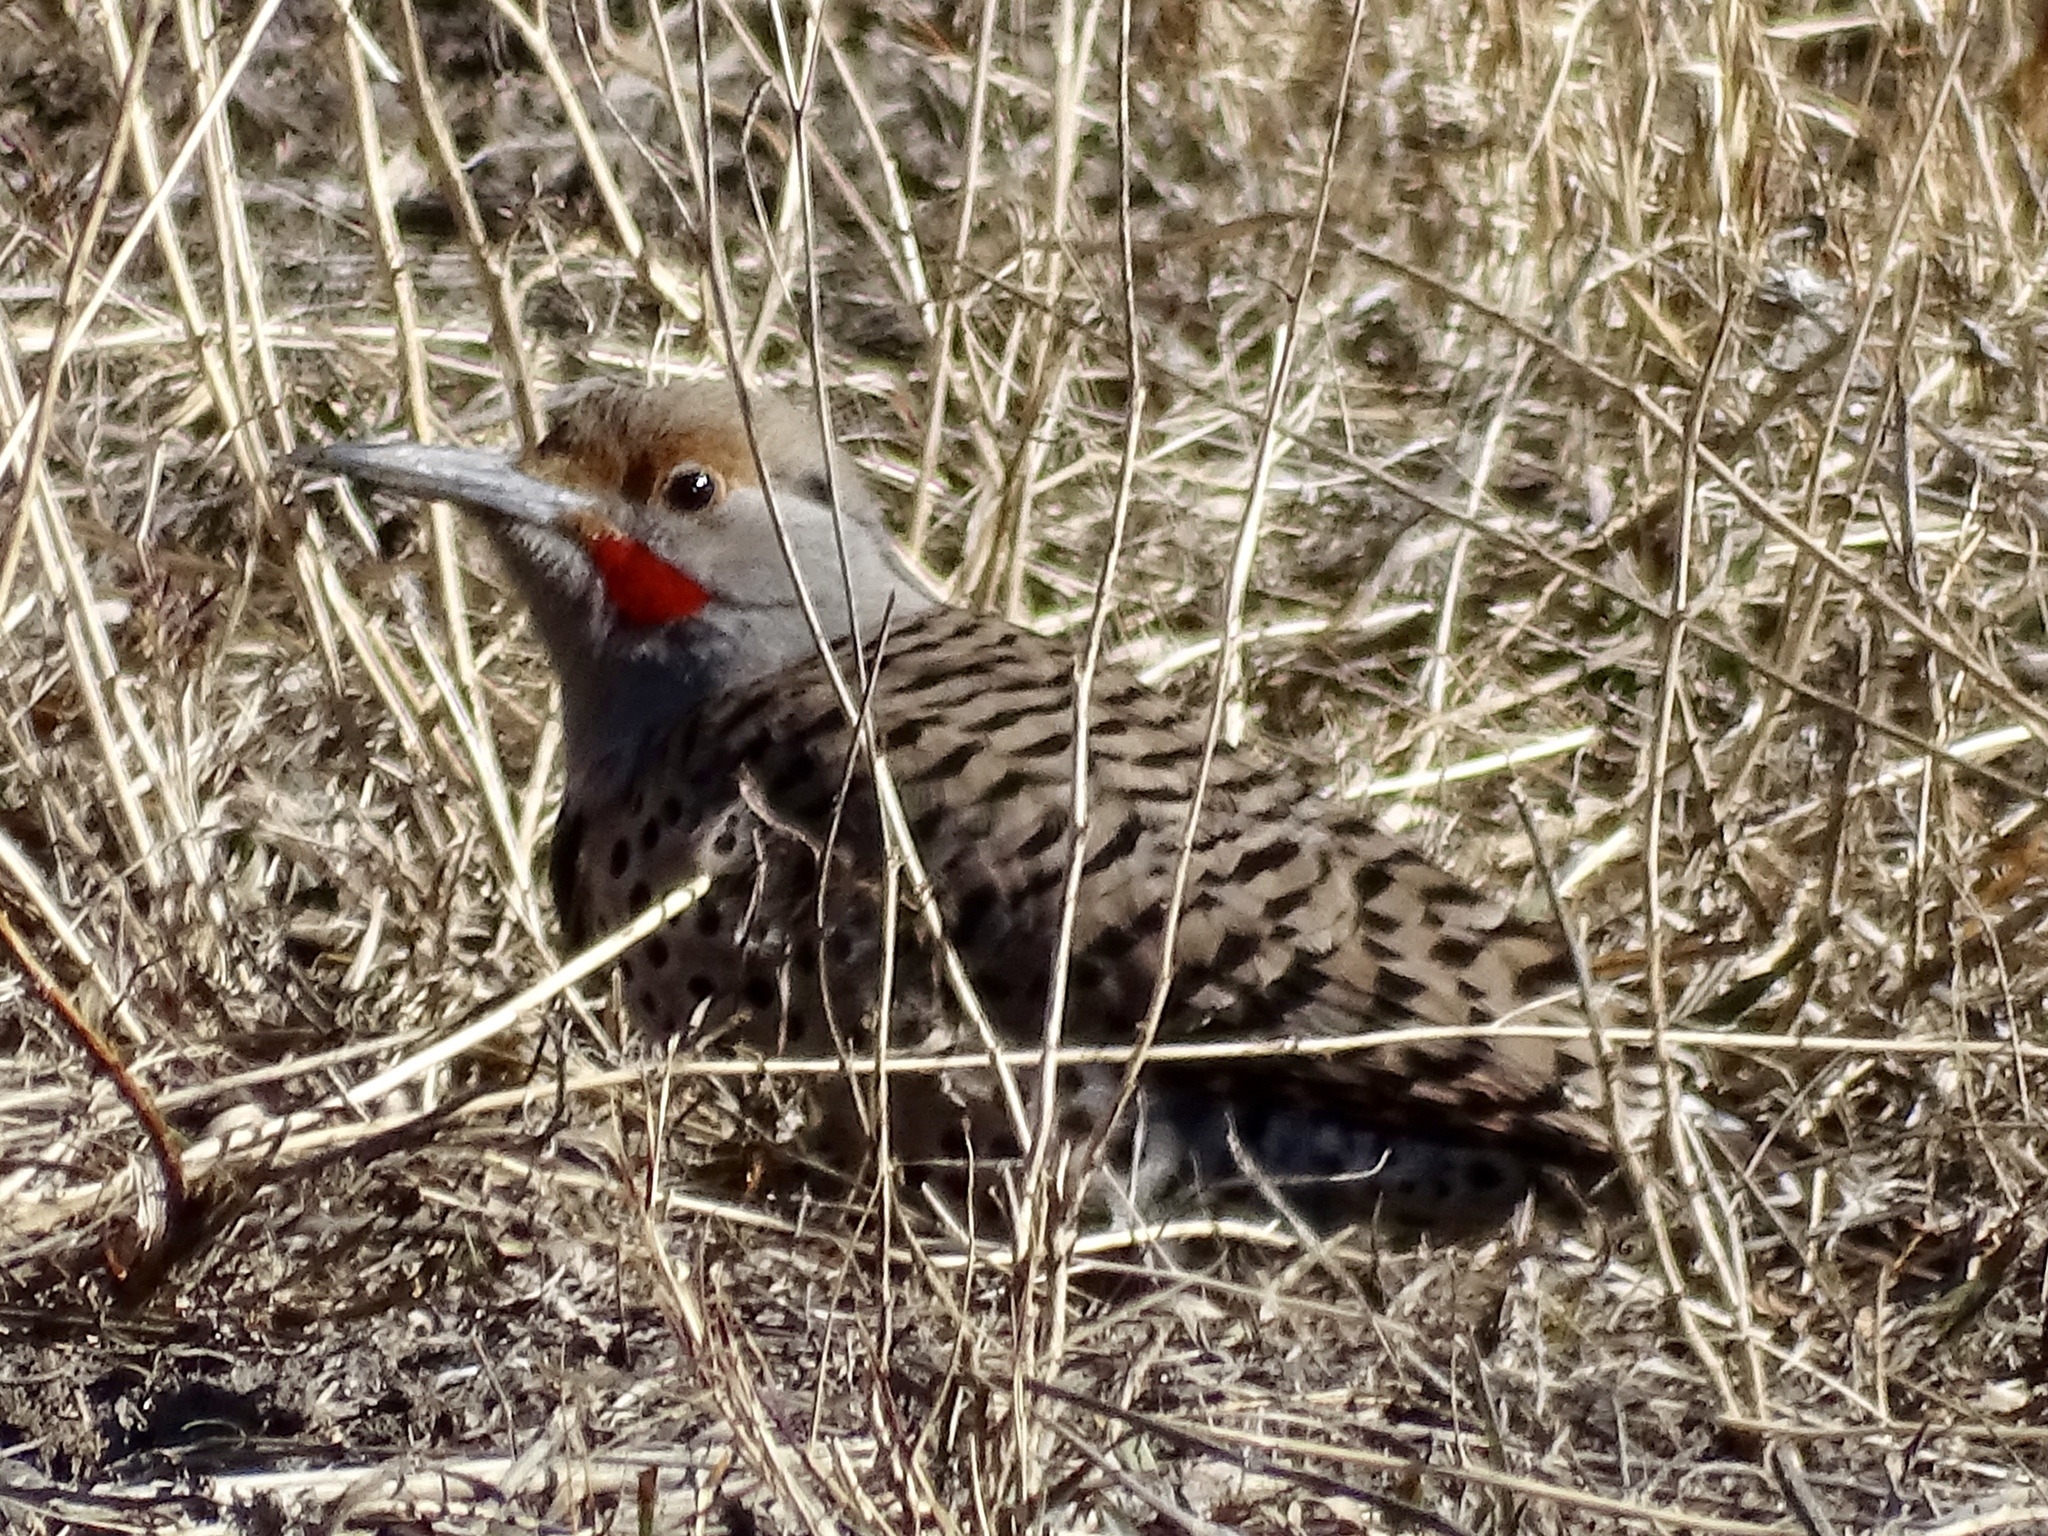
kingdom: Animalia
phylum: Chordata
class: Aves
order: Piciformes
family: Picidae
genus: Colaptes
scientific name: Colaptes auratus
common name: Northern flicker
